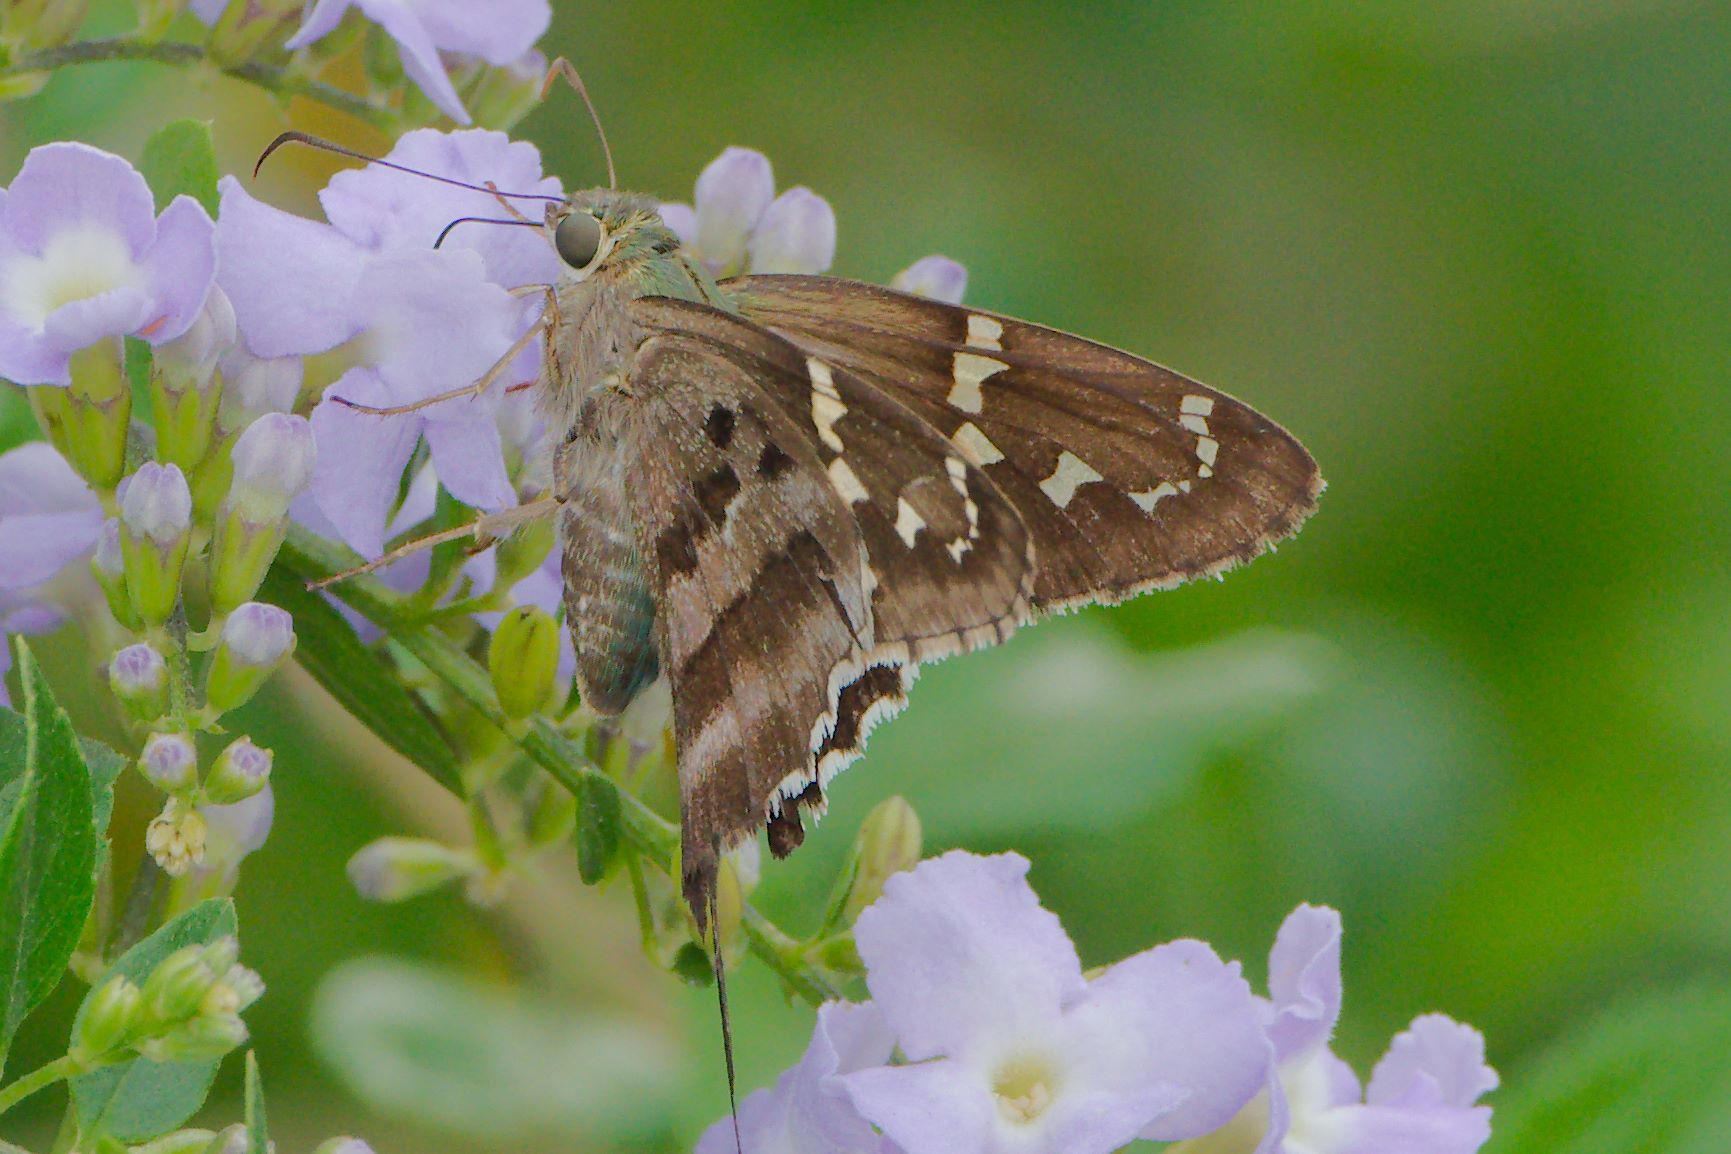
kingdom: Animalia
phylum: Arthropoda
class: Insecta
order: Lepidoptera
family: Hesperiidae
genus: Urbanus
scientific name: Urbanus proteus
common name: Long-tailed skipper
